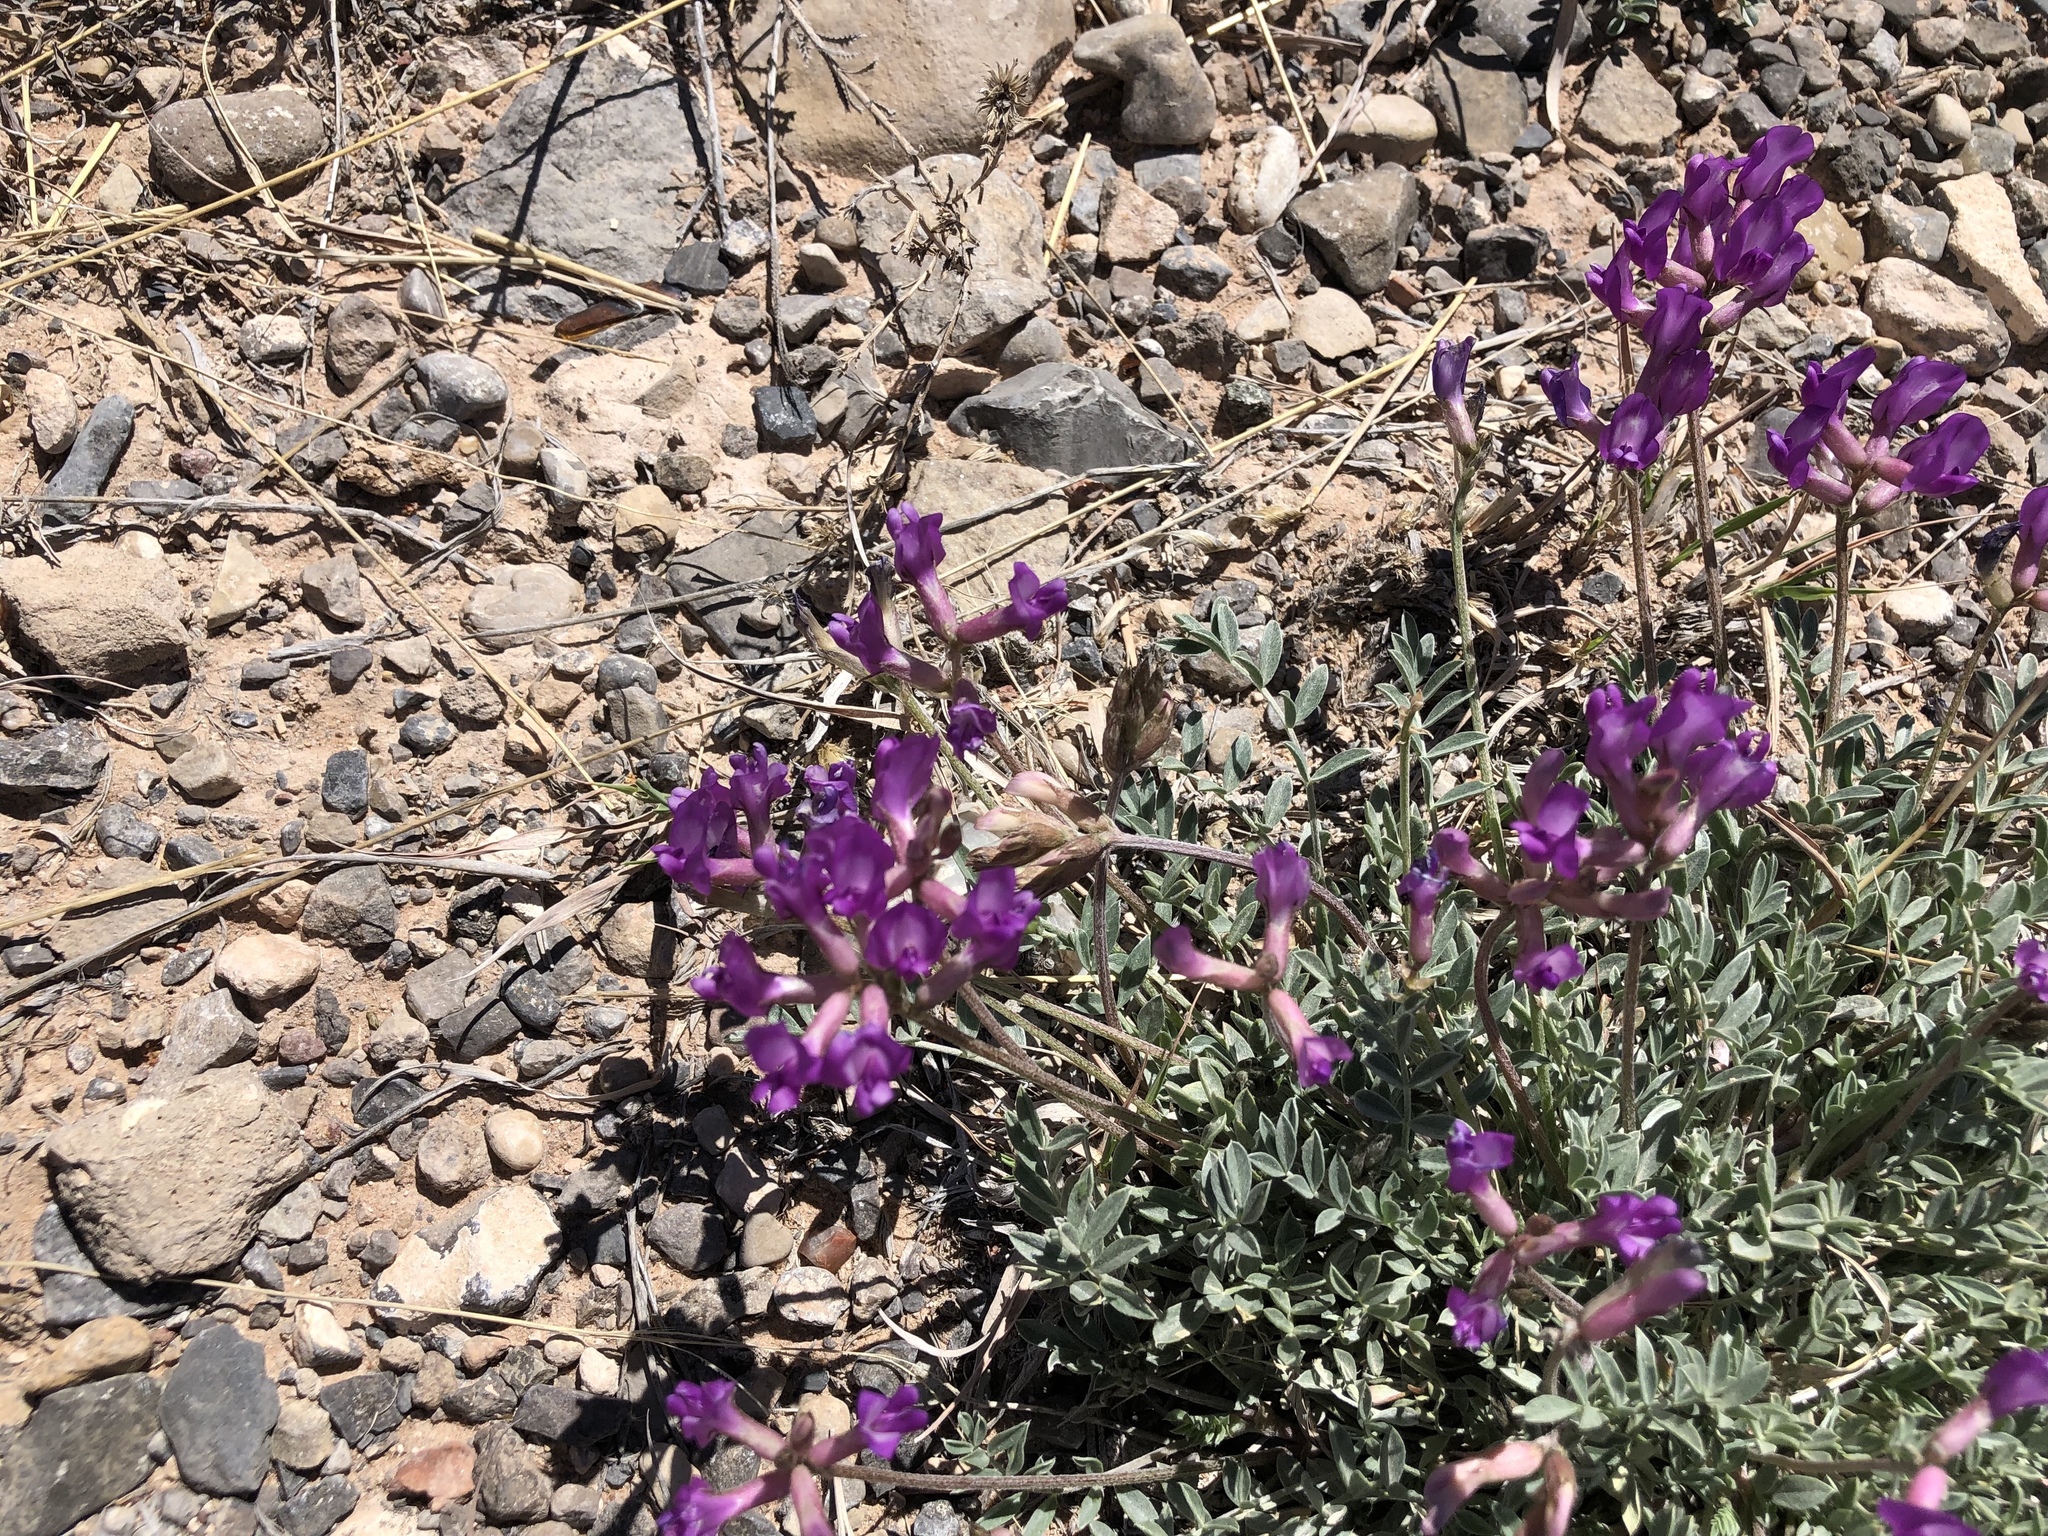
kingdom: Plantae
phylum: Tracheophyta
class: Magnoliopsida
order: Fabales
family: Fabaceae
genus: Astragalus
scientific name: Astragalus missouriensis
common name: Missouri milk-vetch
